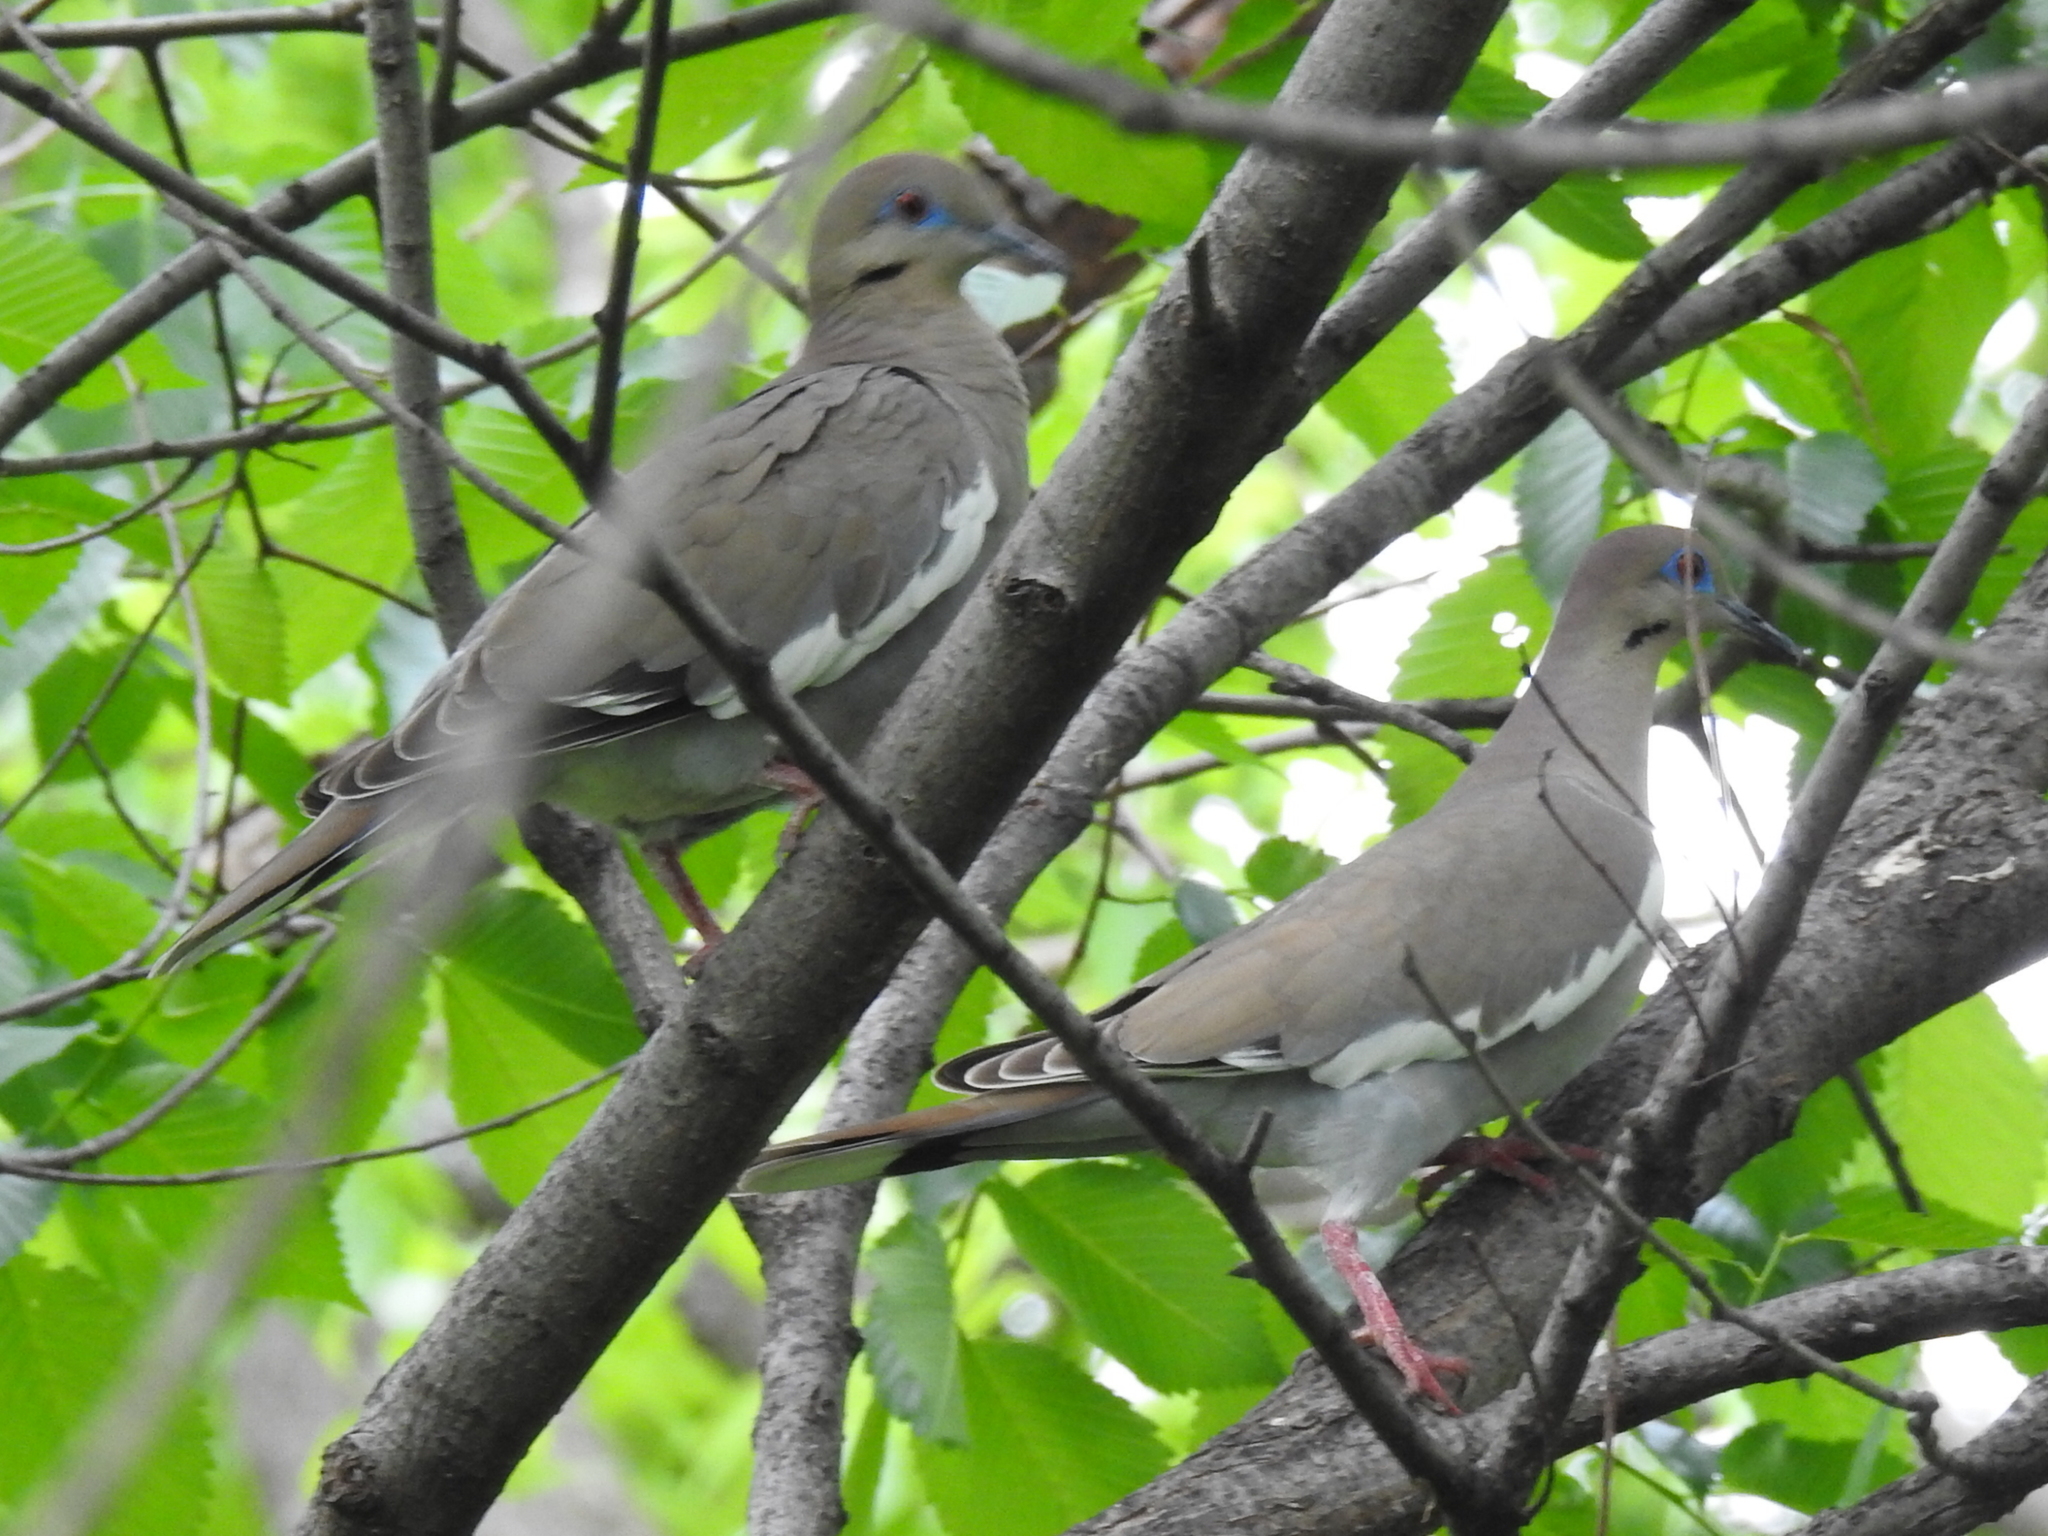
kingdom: Animalia
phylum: Chordata
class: Aves
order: Columbiformes
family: Columbidae
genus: Zenaida
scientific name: Zenaida asiatica
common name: White-winged dove
